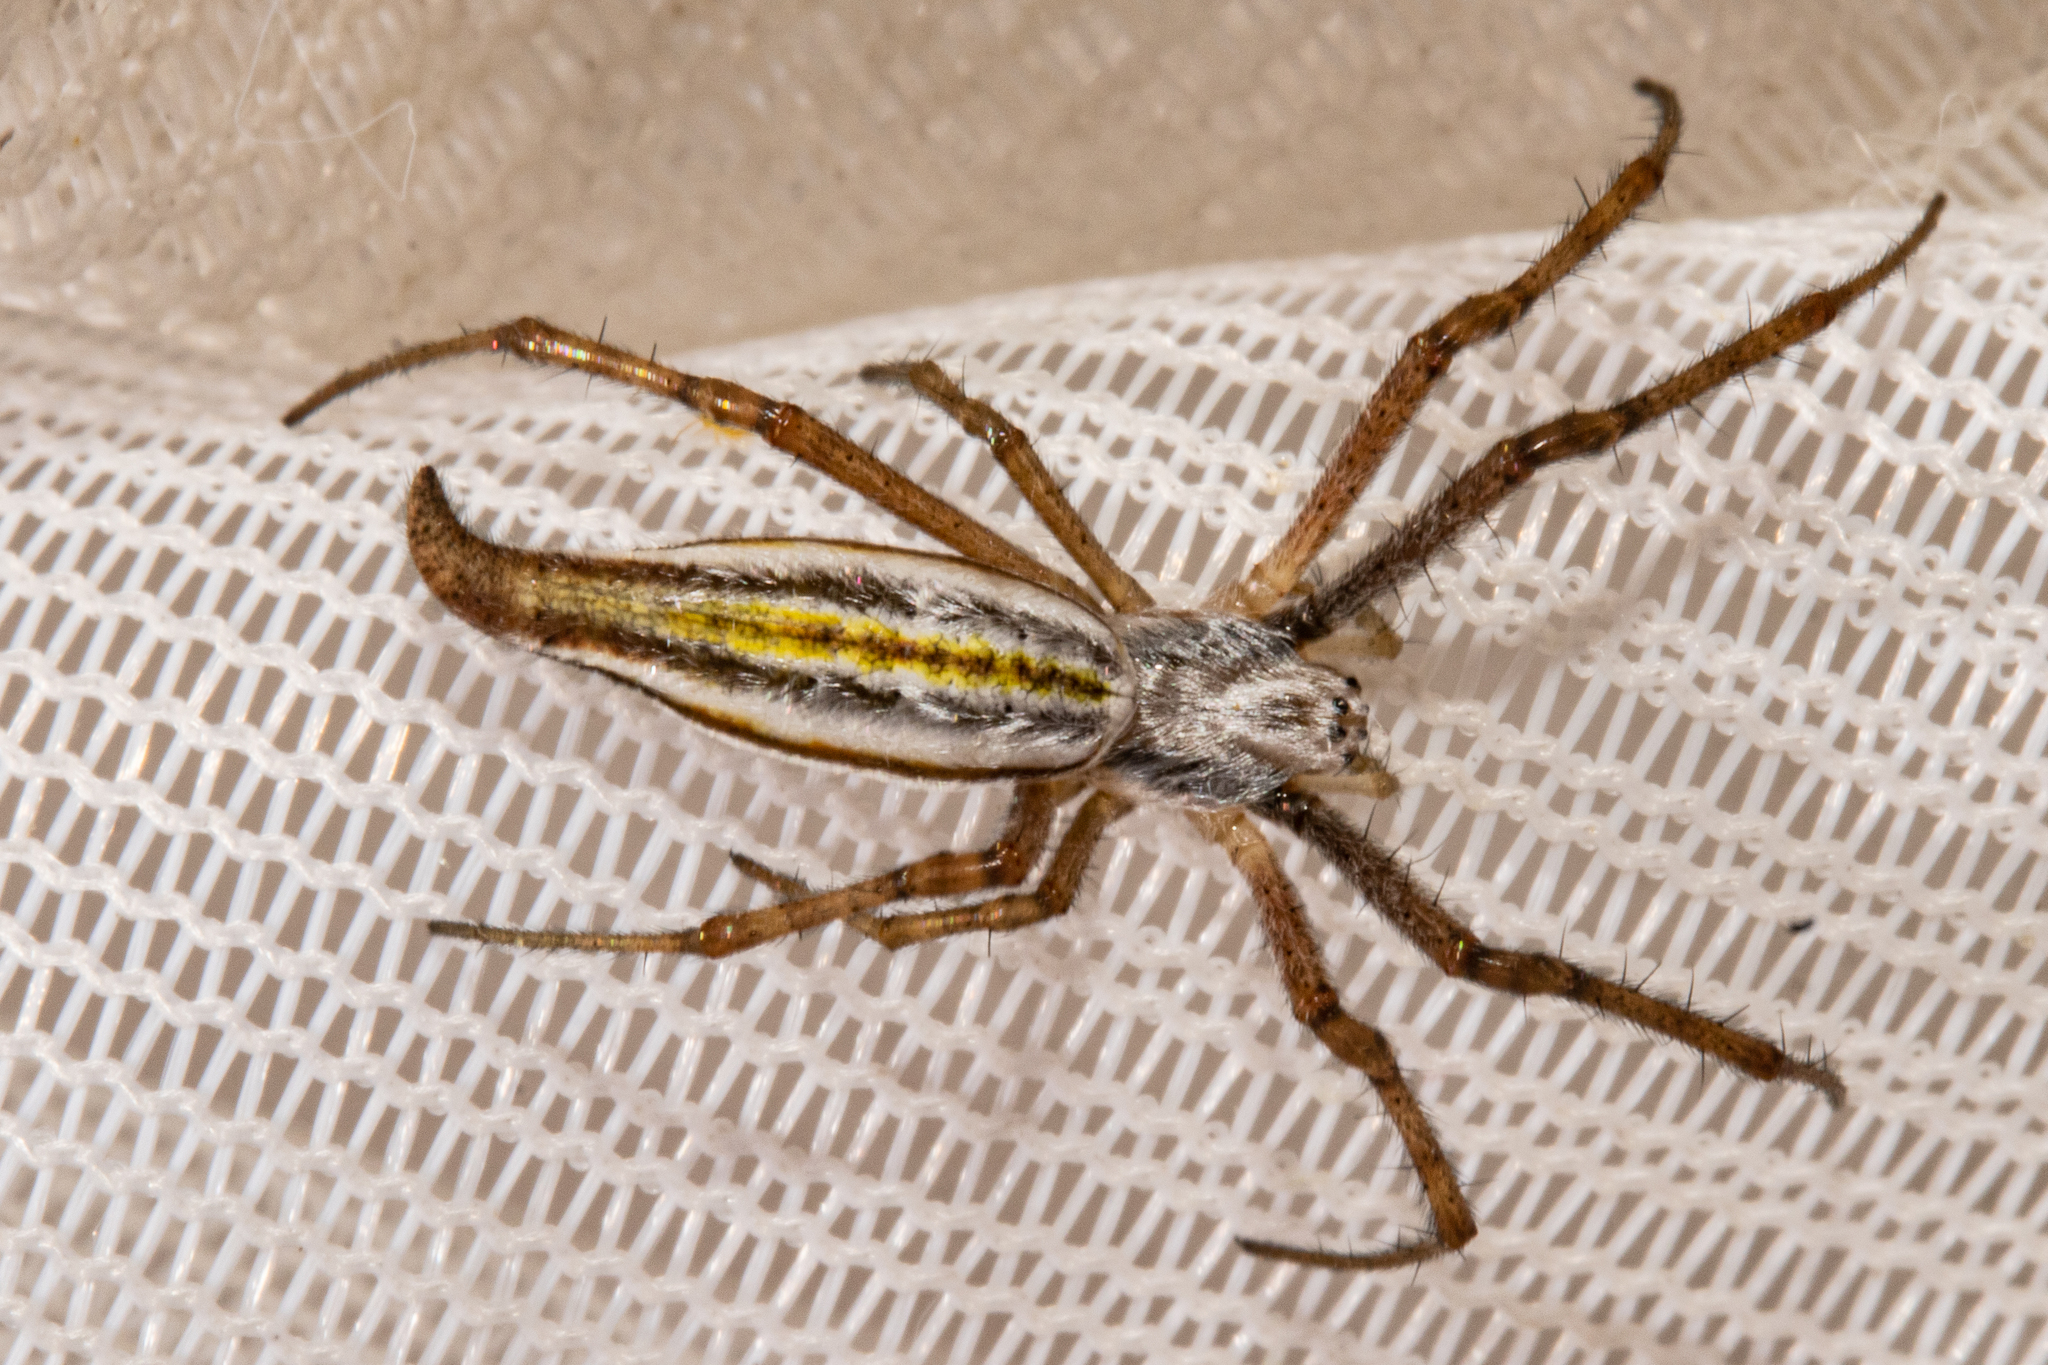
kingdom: Animalia
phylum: Arthropoda
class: Arachnida
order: Araneae
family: Araneidae
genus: Argiope
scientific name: Argiope protensa
